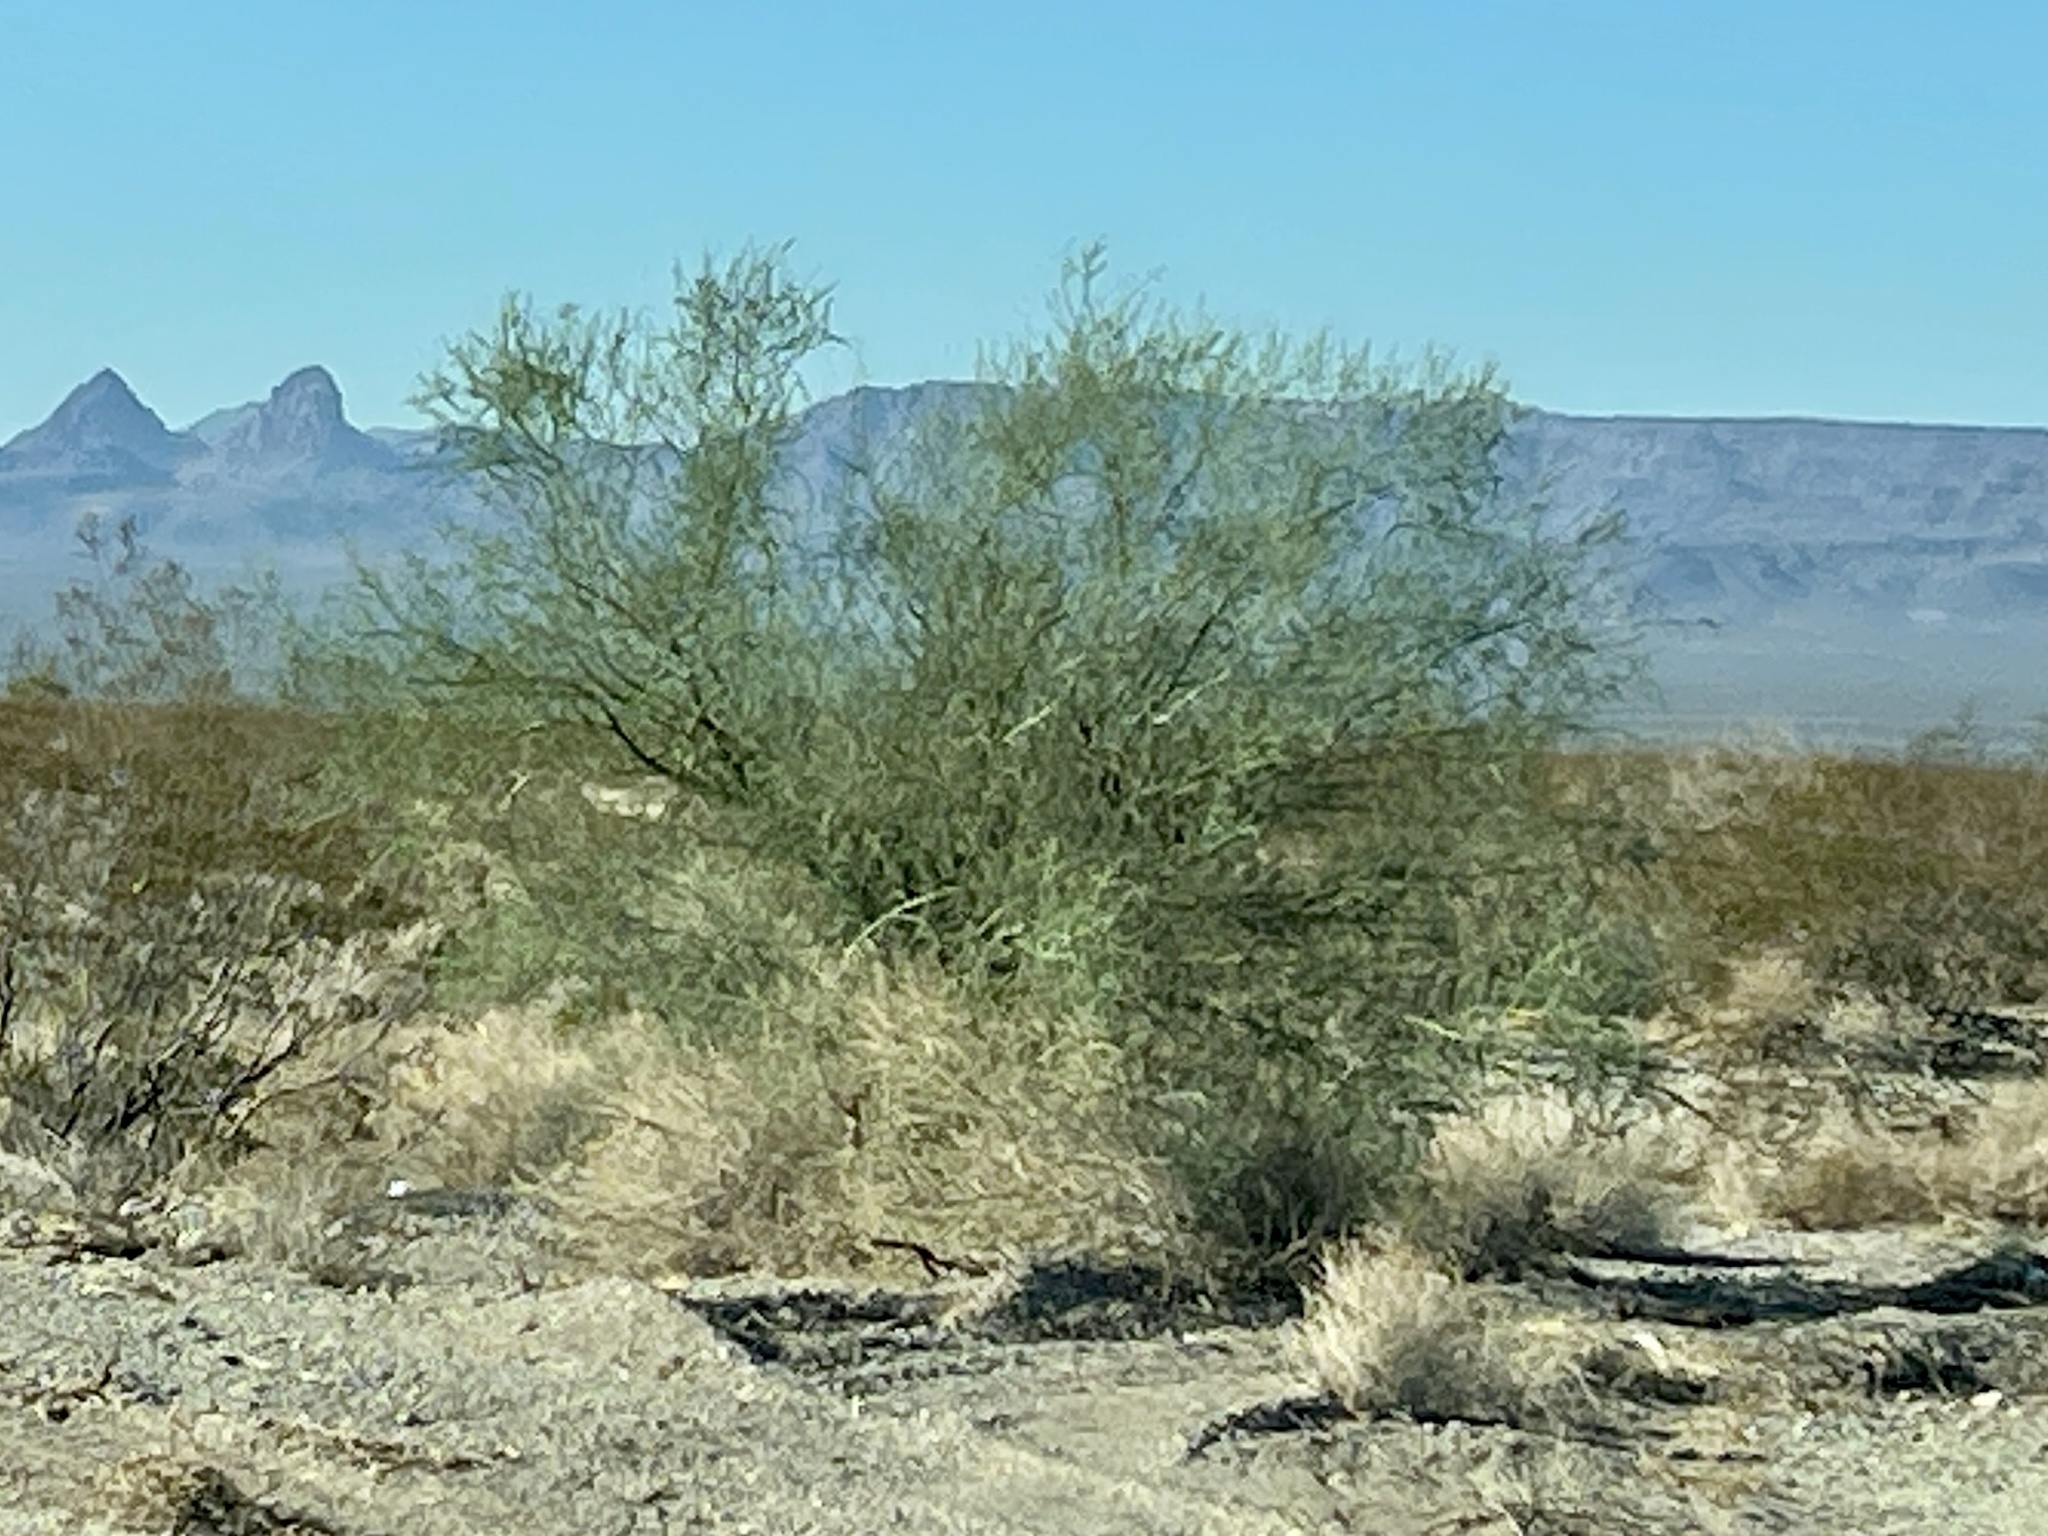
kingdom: Plantae
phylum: Tracheophyta
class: Magnoliopsida
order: Fabales
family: Fabaceae
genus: Parkinsonia
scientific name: Parkinsonia florida
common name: Blue paloverde
